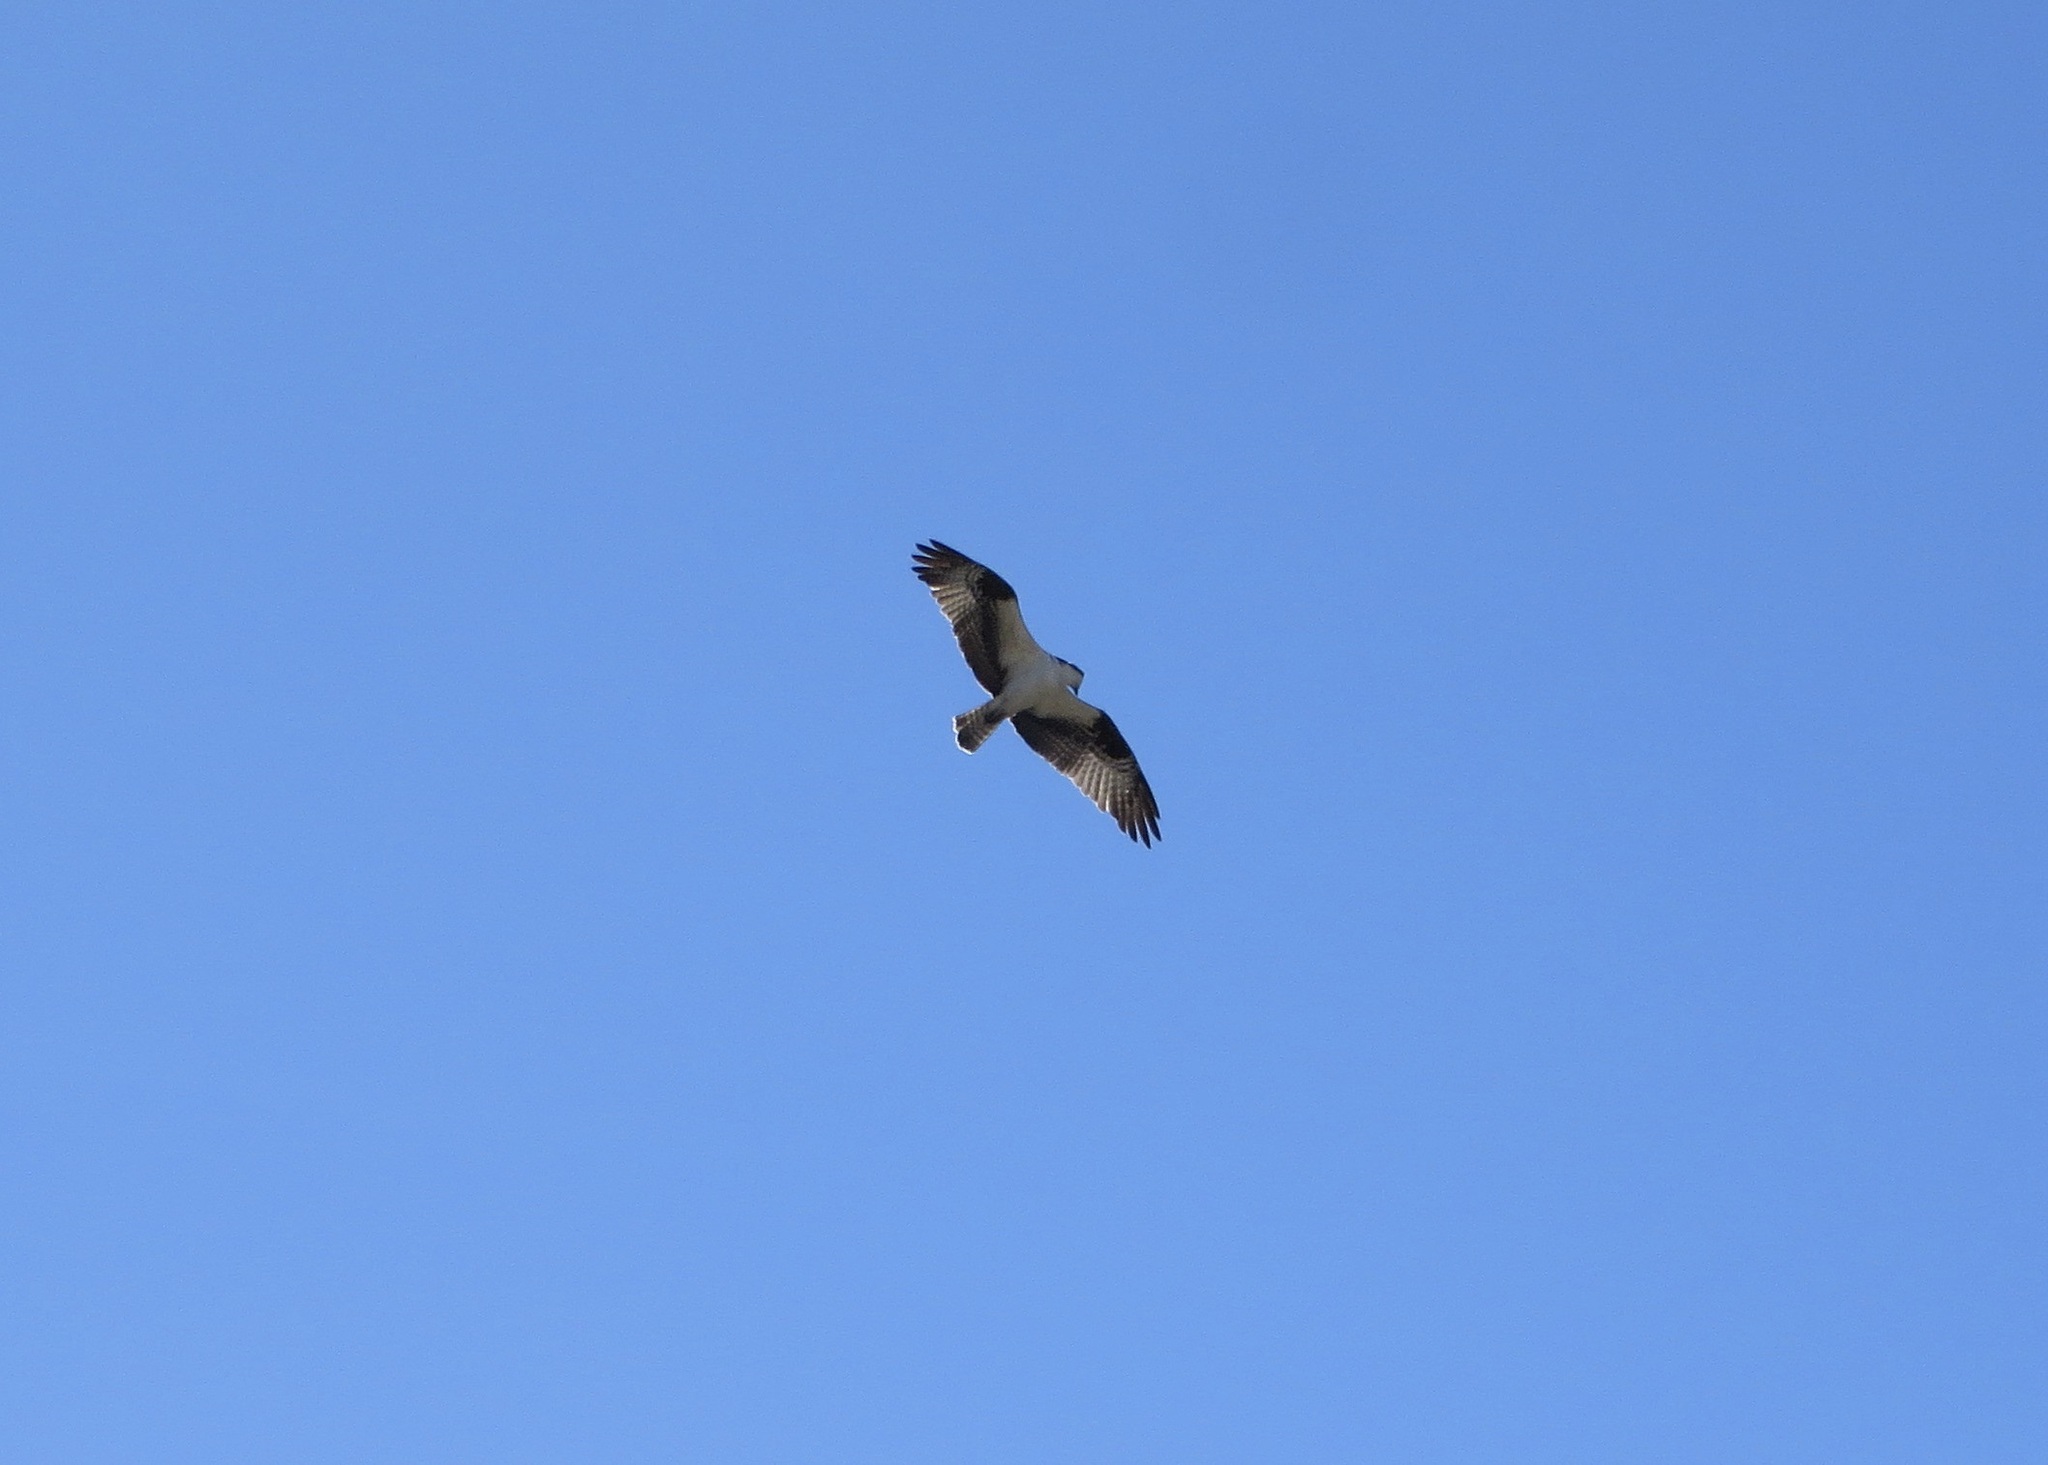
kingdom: Animalia
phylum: Chordata
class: Aves
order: Accipitriformes
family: Pandionidae
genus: Pandion
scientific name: Pandion haliaetus
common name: Osprey
